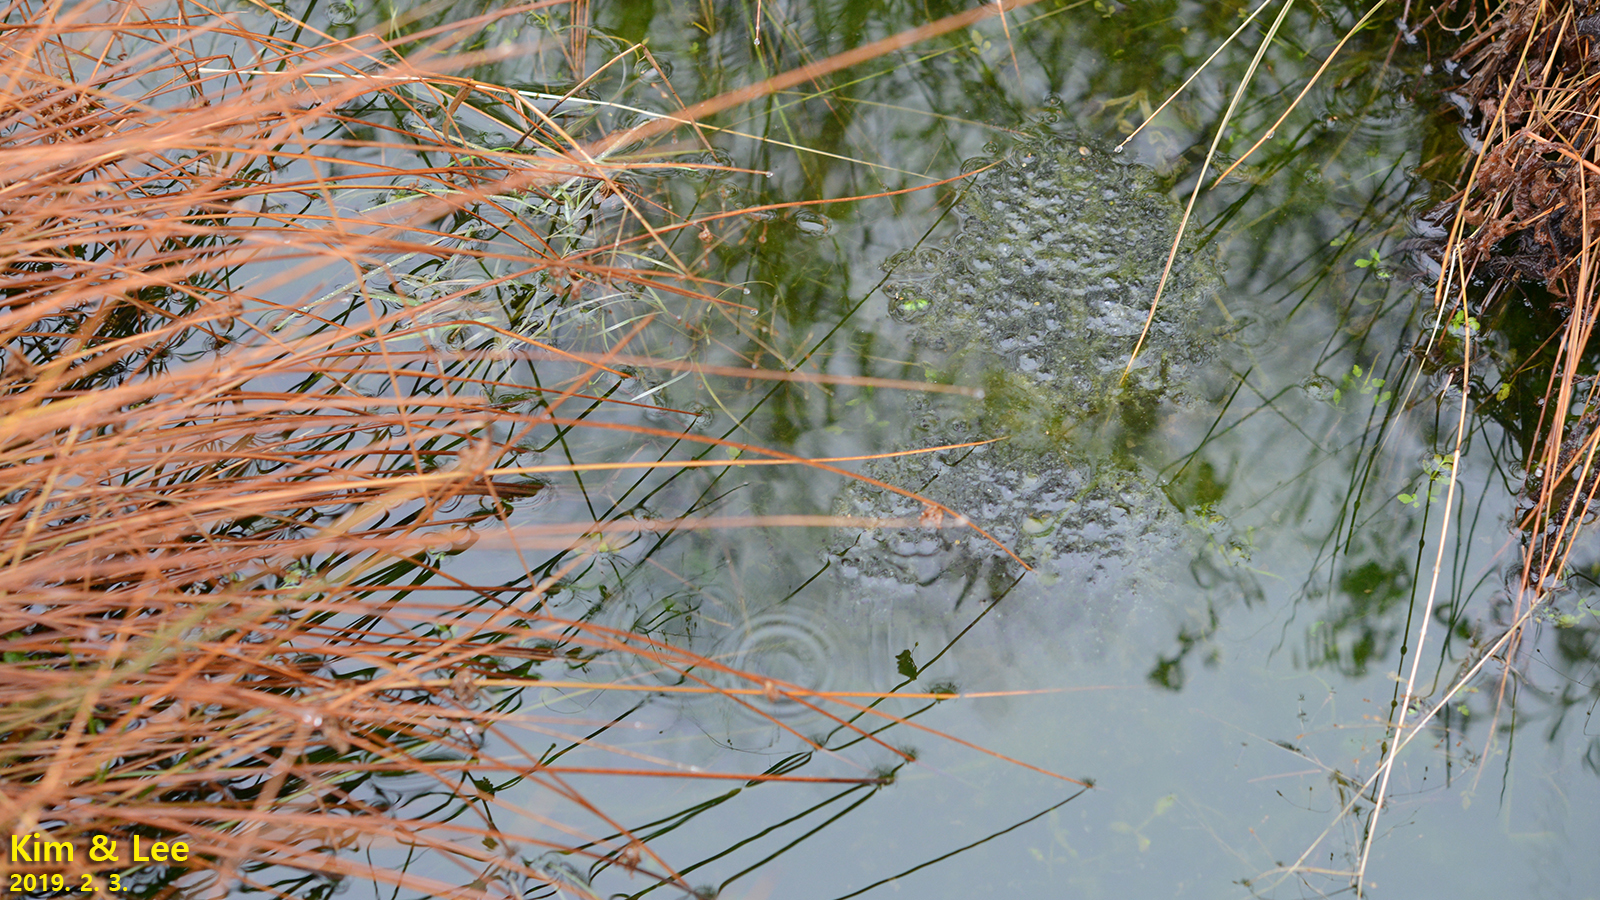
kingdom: Animalia
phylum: Chordata
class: Amphibia
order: Anura
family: Ranidae
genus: Rana
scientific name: Rana uenoi
